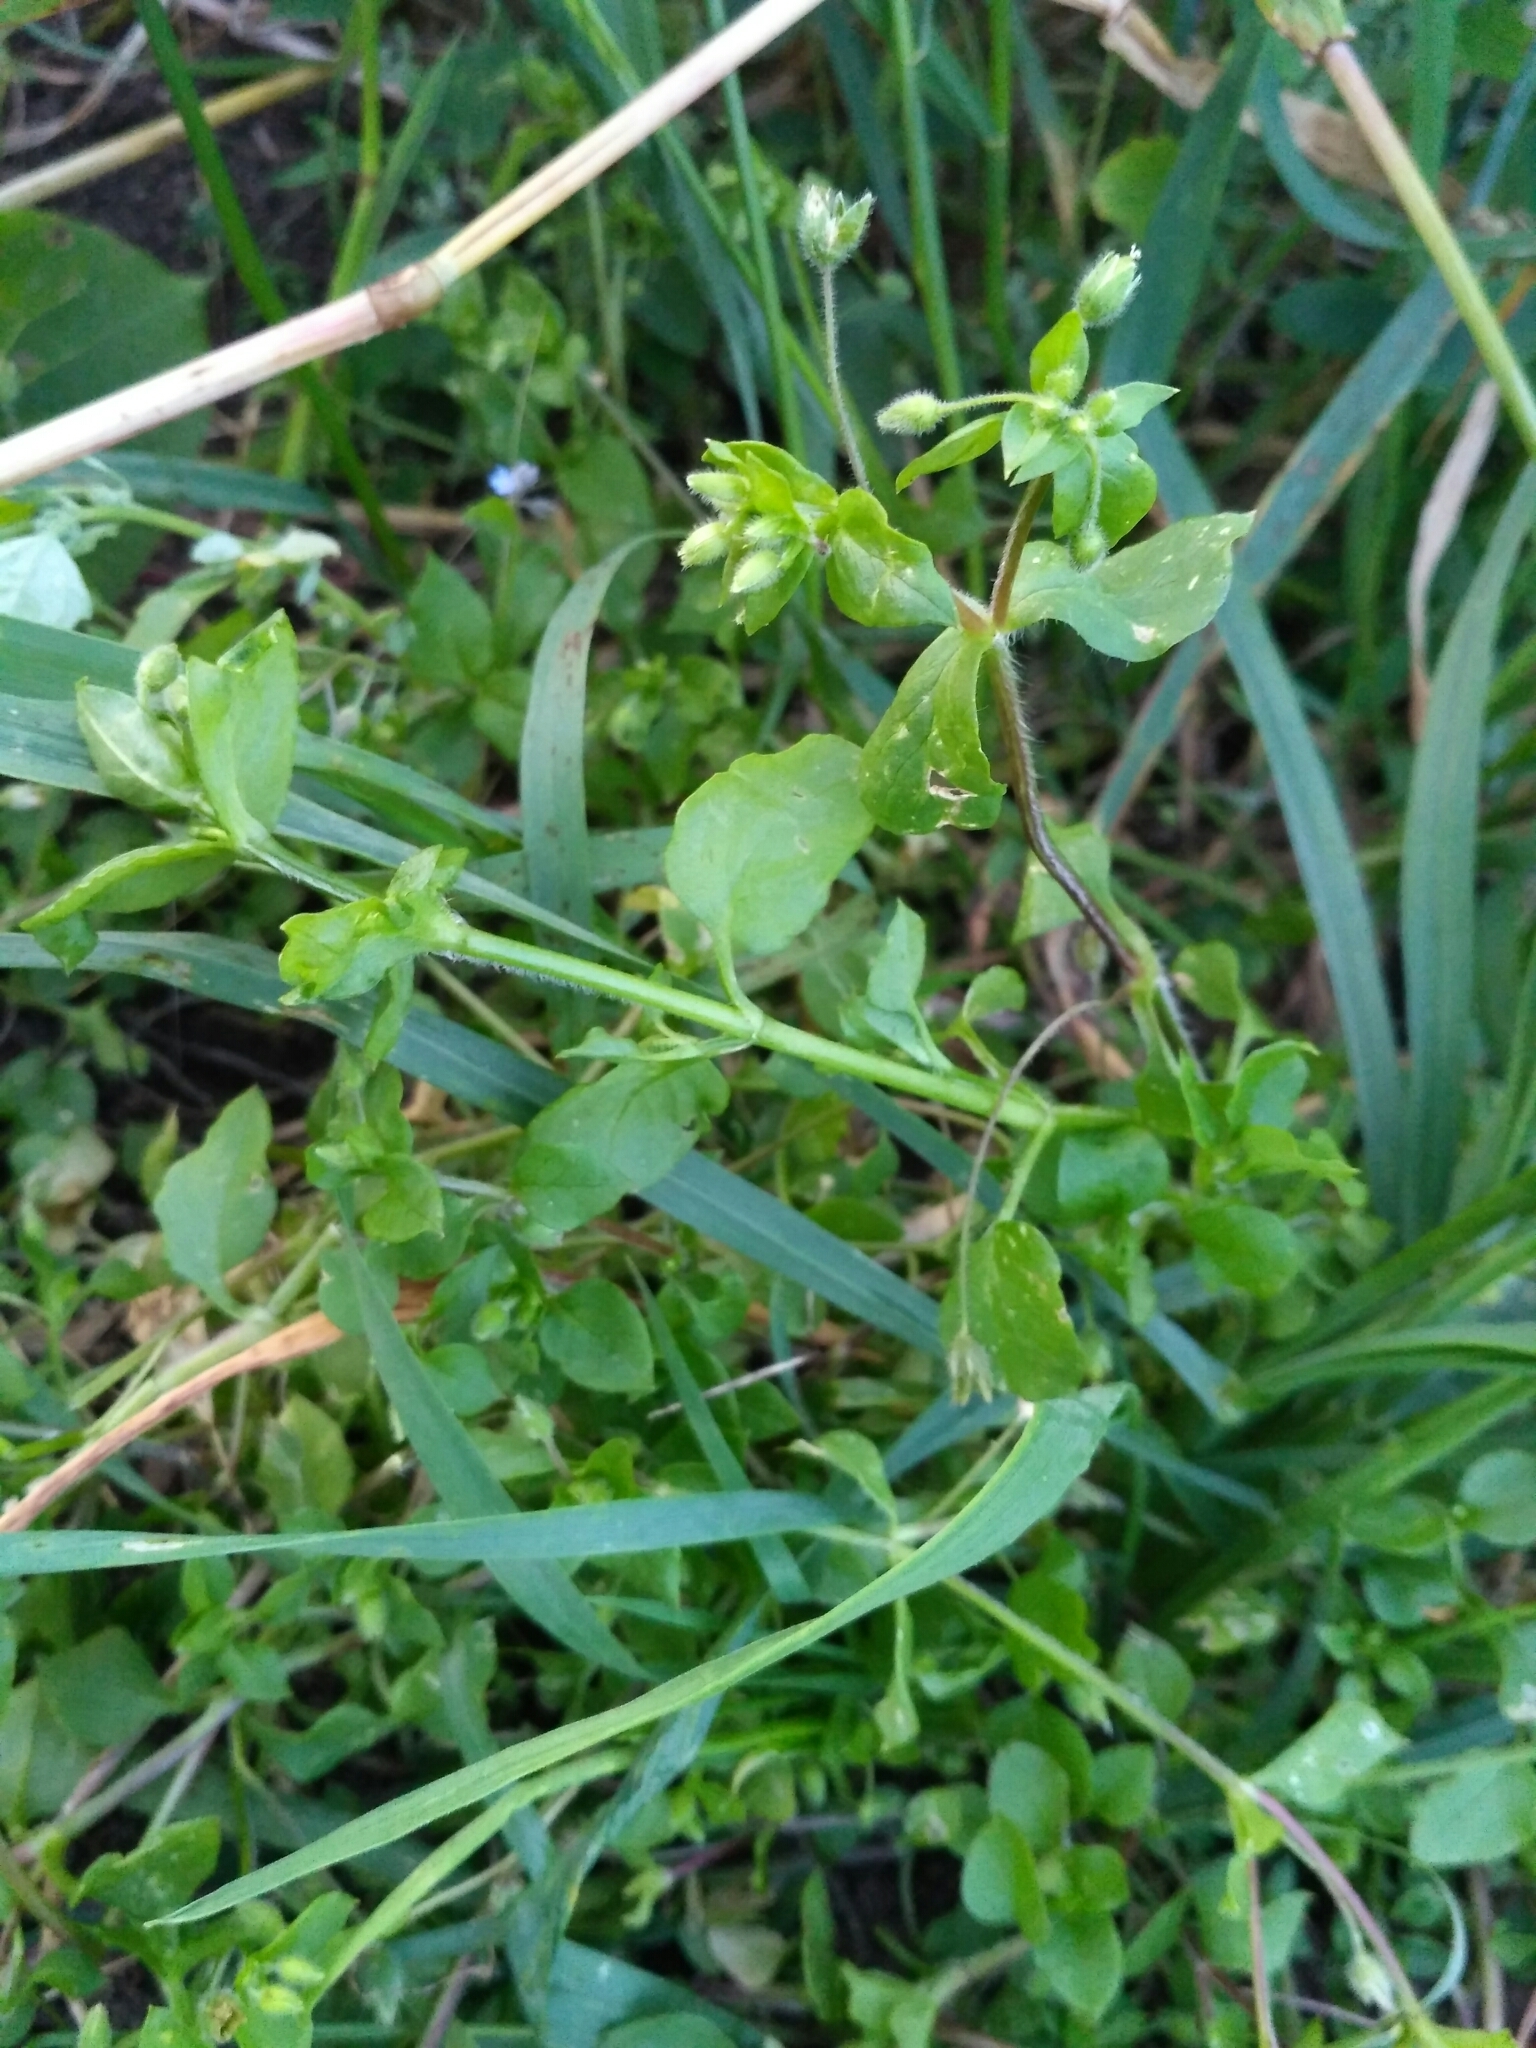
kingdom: Plantae
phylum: Tracheophyta
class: Magnoliopsida
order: Caryophyllales
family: Caryophyllaceae
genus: Stellaria
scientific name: Stellaria media
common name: Common chickweed
